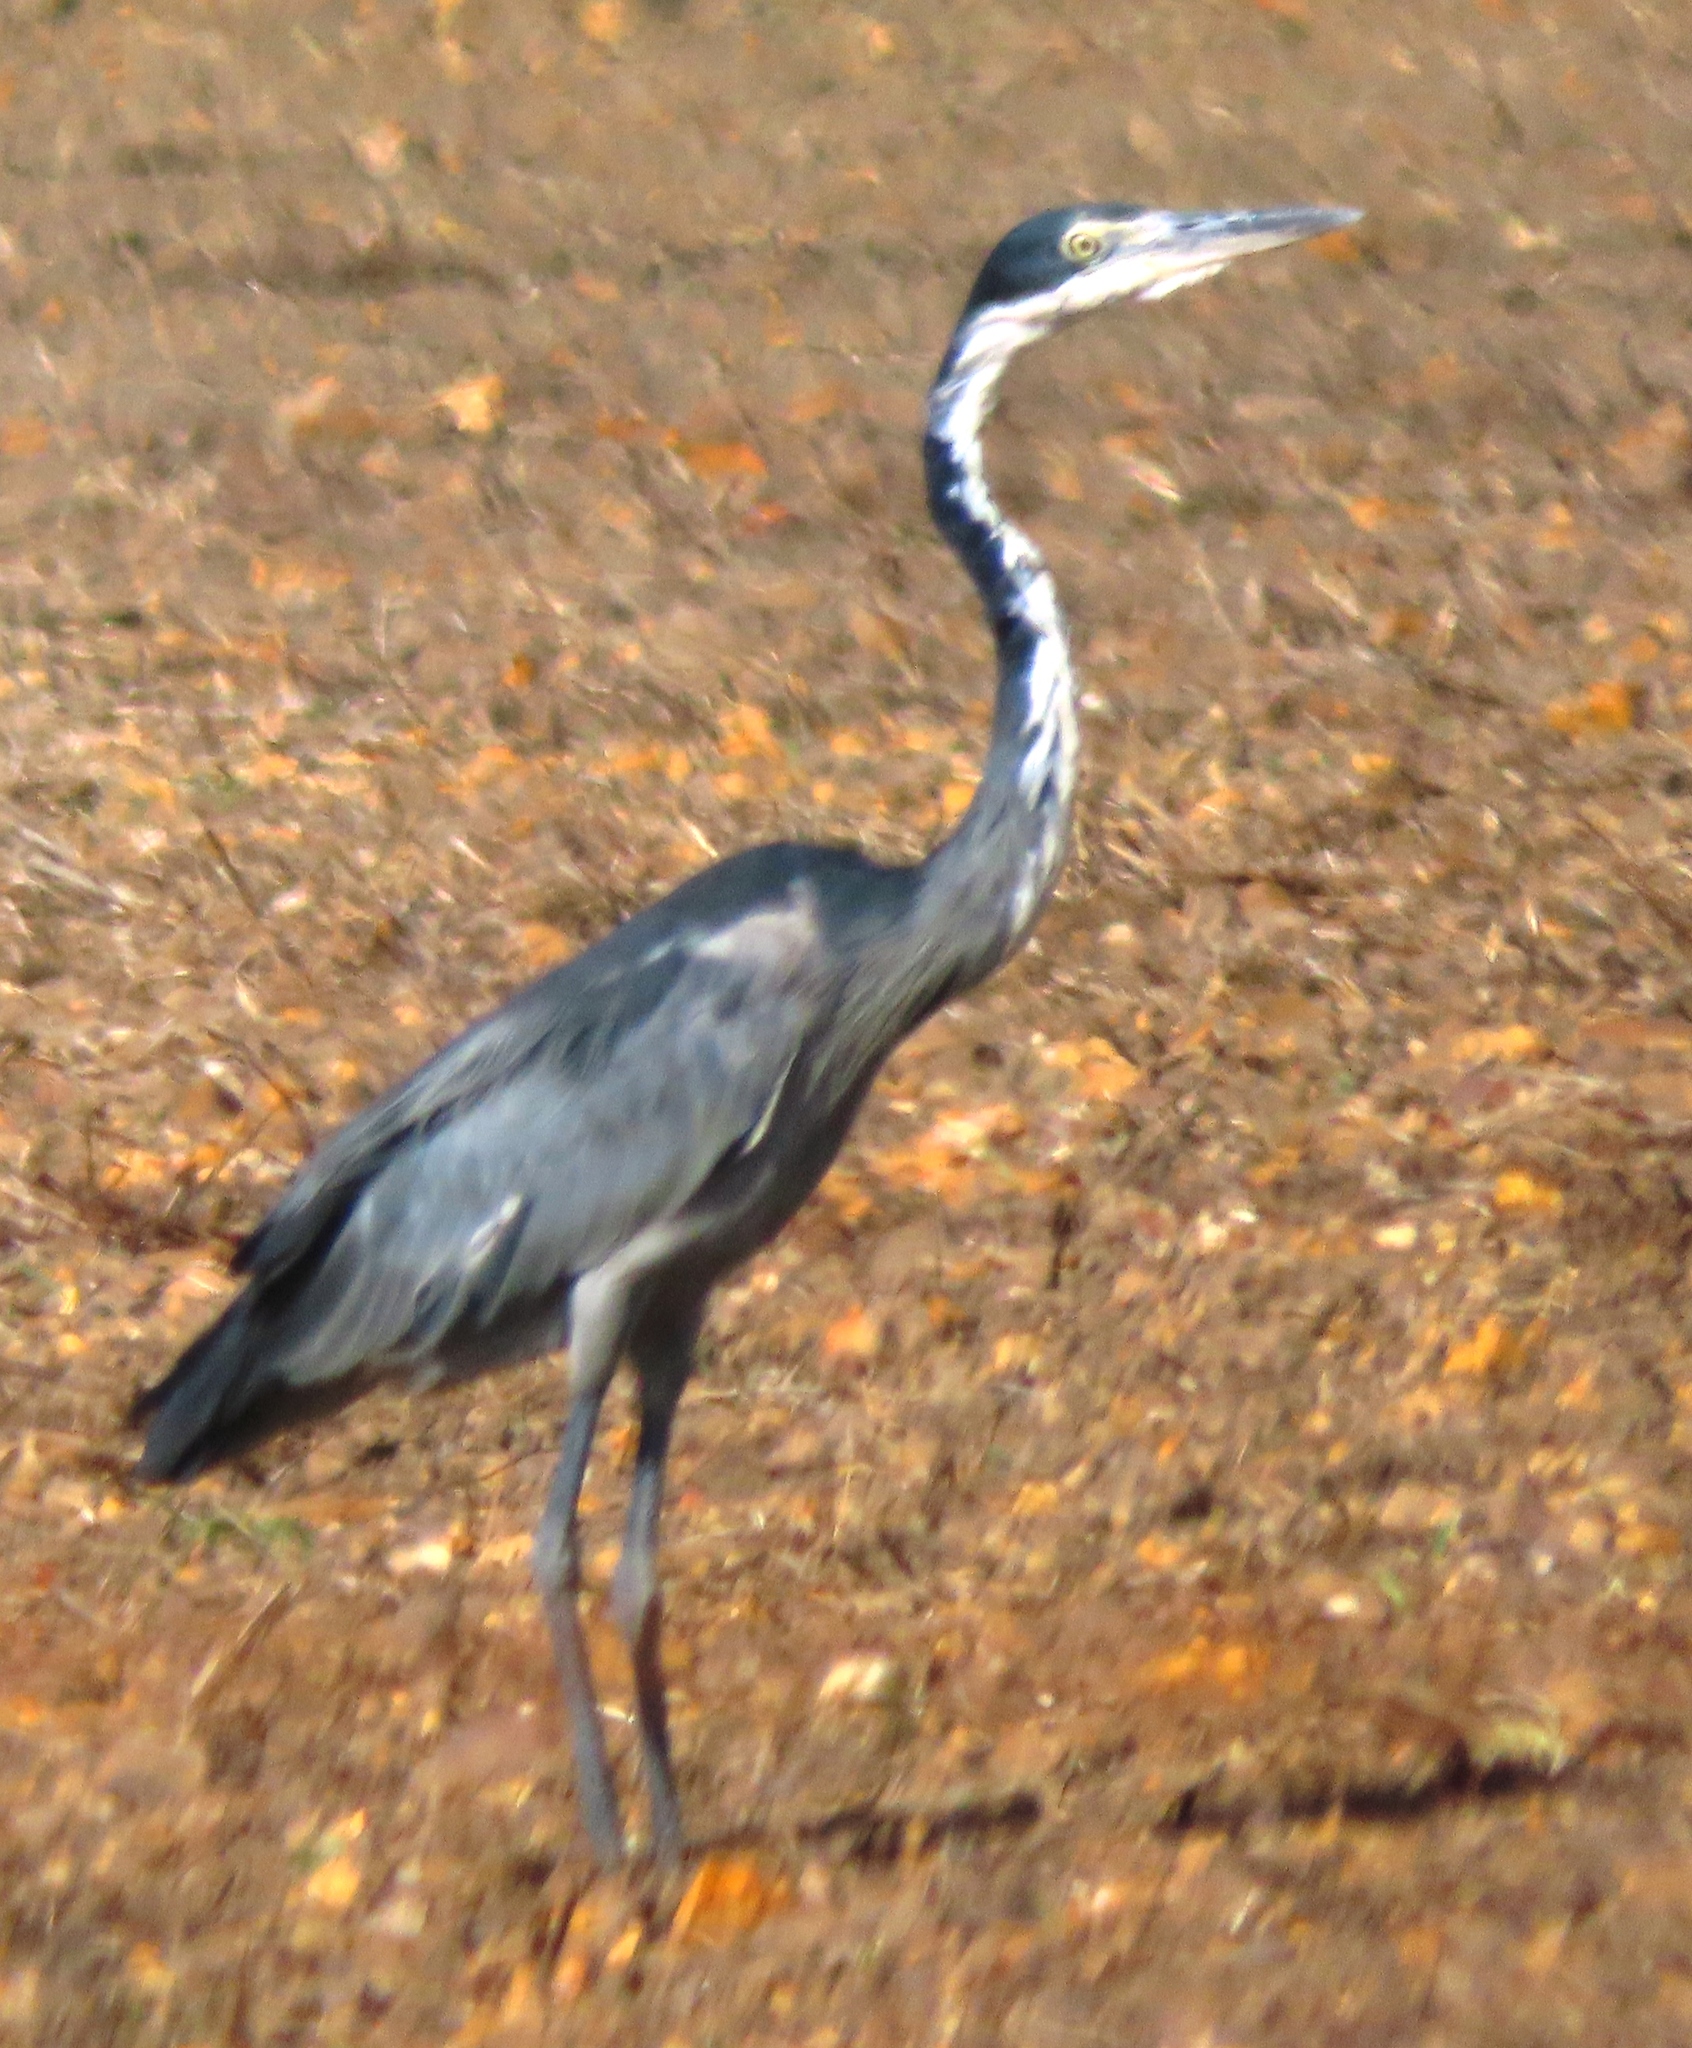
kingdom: Animalia
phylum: Chordata
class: Aves
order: Pelecaniformes
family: Ardeidae
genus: Ardea
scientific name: Ardea melanocephala
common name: Black-headed heron
